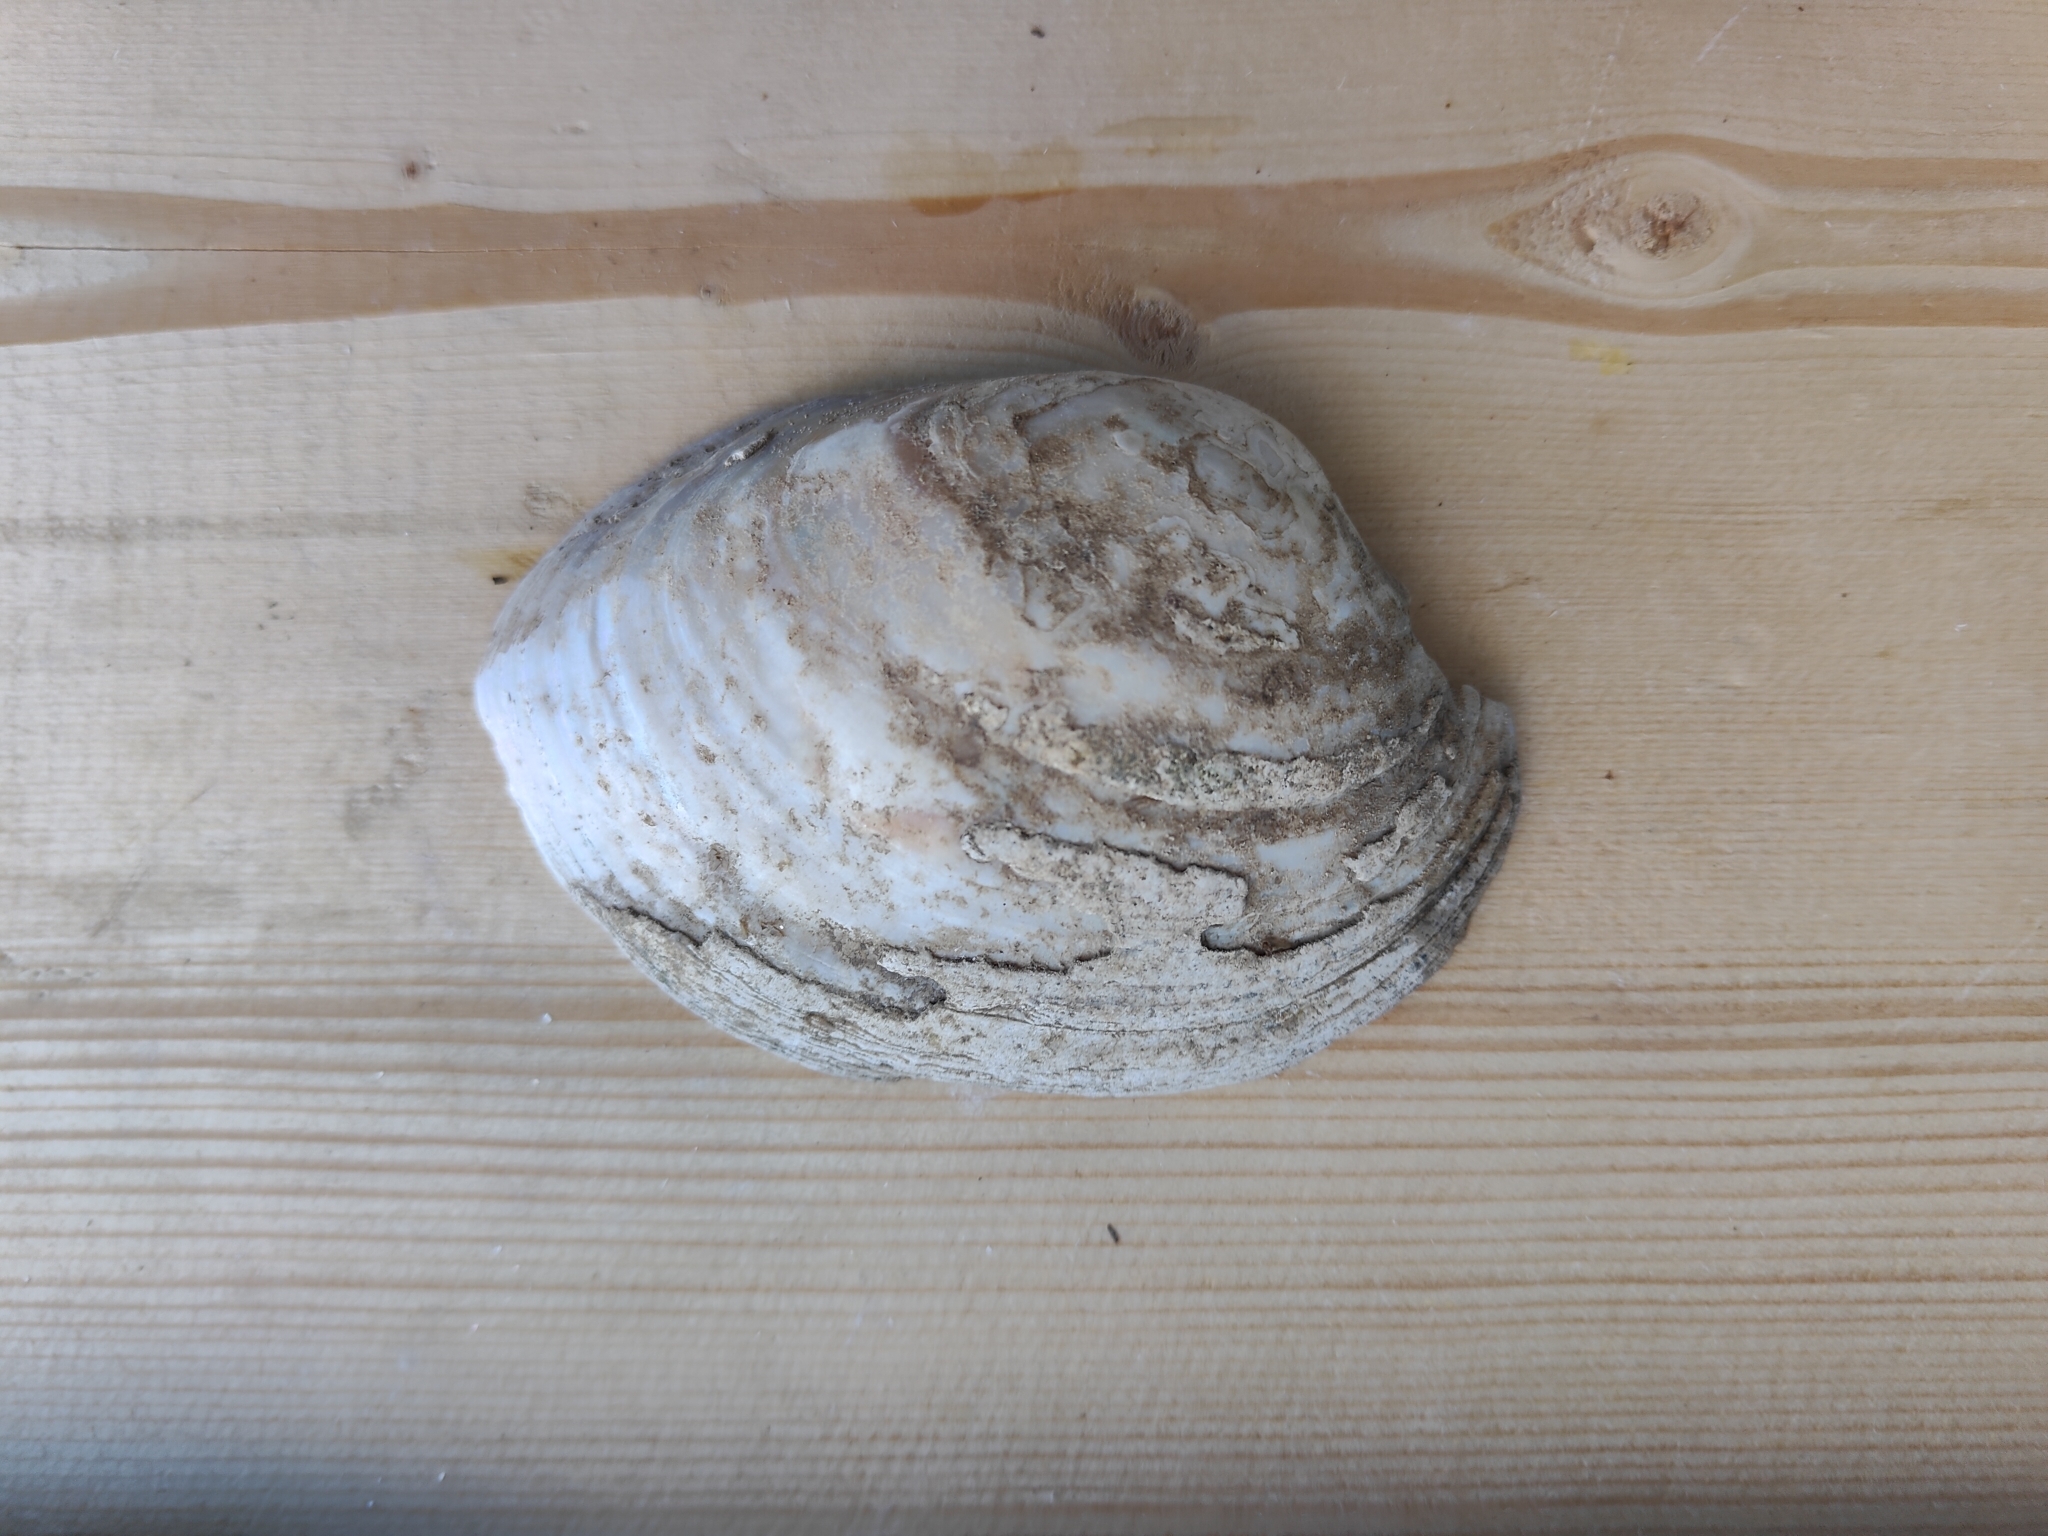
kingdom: Animalia
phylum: Mollusca
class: Bivalvia
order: Unionida
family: Unionidae
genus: Lampsilis
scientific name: Lampsilis cardium
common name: Plain pocketbook
